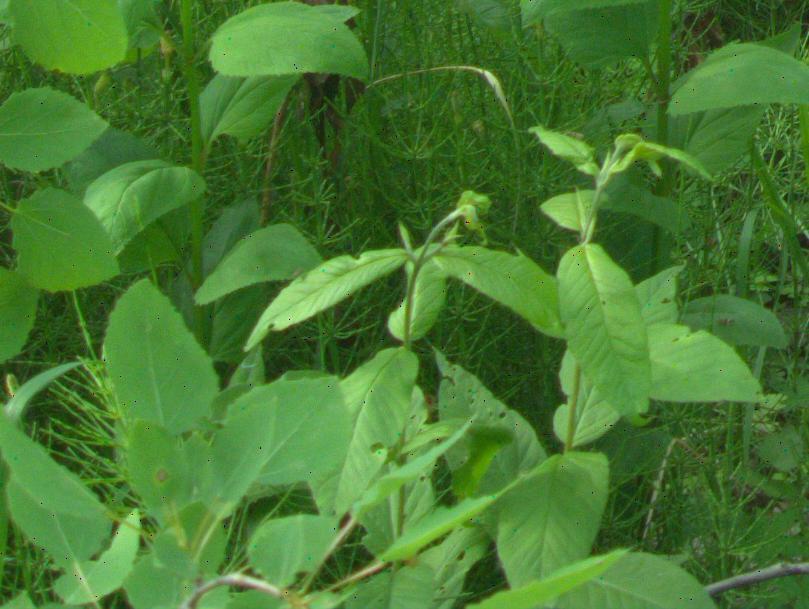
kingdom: Plantae
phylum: Tracheophyta
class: Magnoliopsida
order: Ericales
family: Primulaceae
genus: Lysimachia
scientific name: Lysimachia vulgaris
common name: Yellow loosestrife
